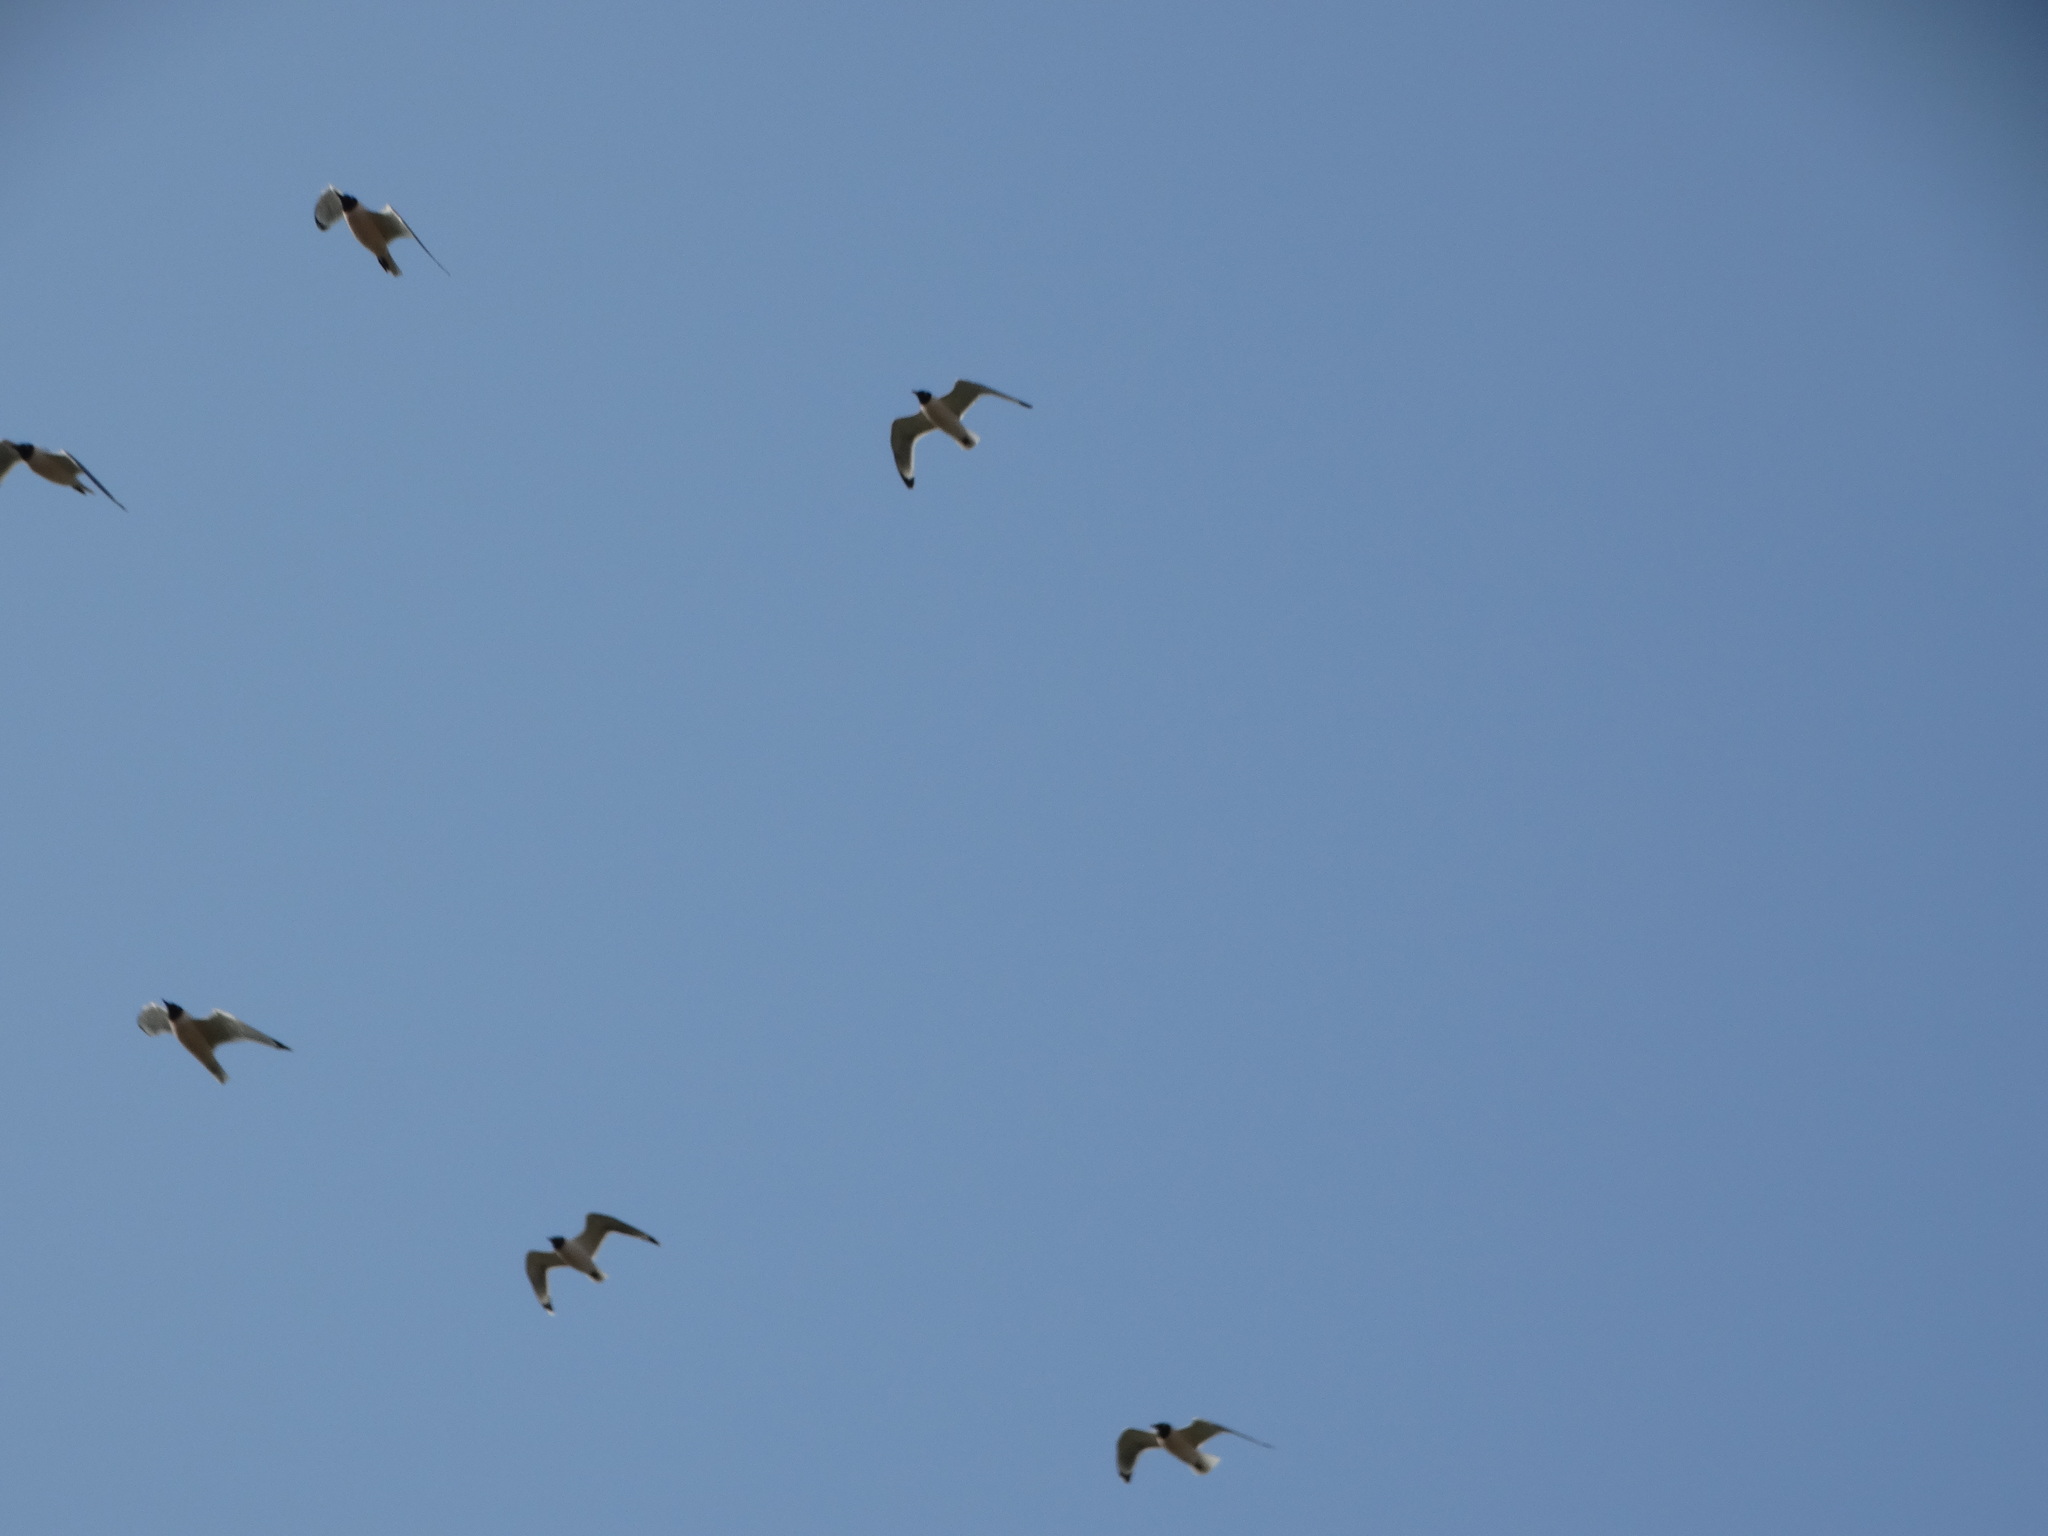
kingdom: Animalia
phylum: Chordata
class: Aves
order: Charadriiformes
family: Laridae
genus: Leucophaeus
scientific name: Leucophaeus pipixcan
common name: Franklin's gull
